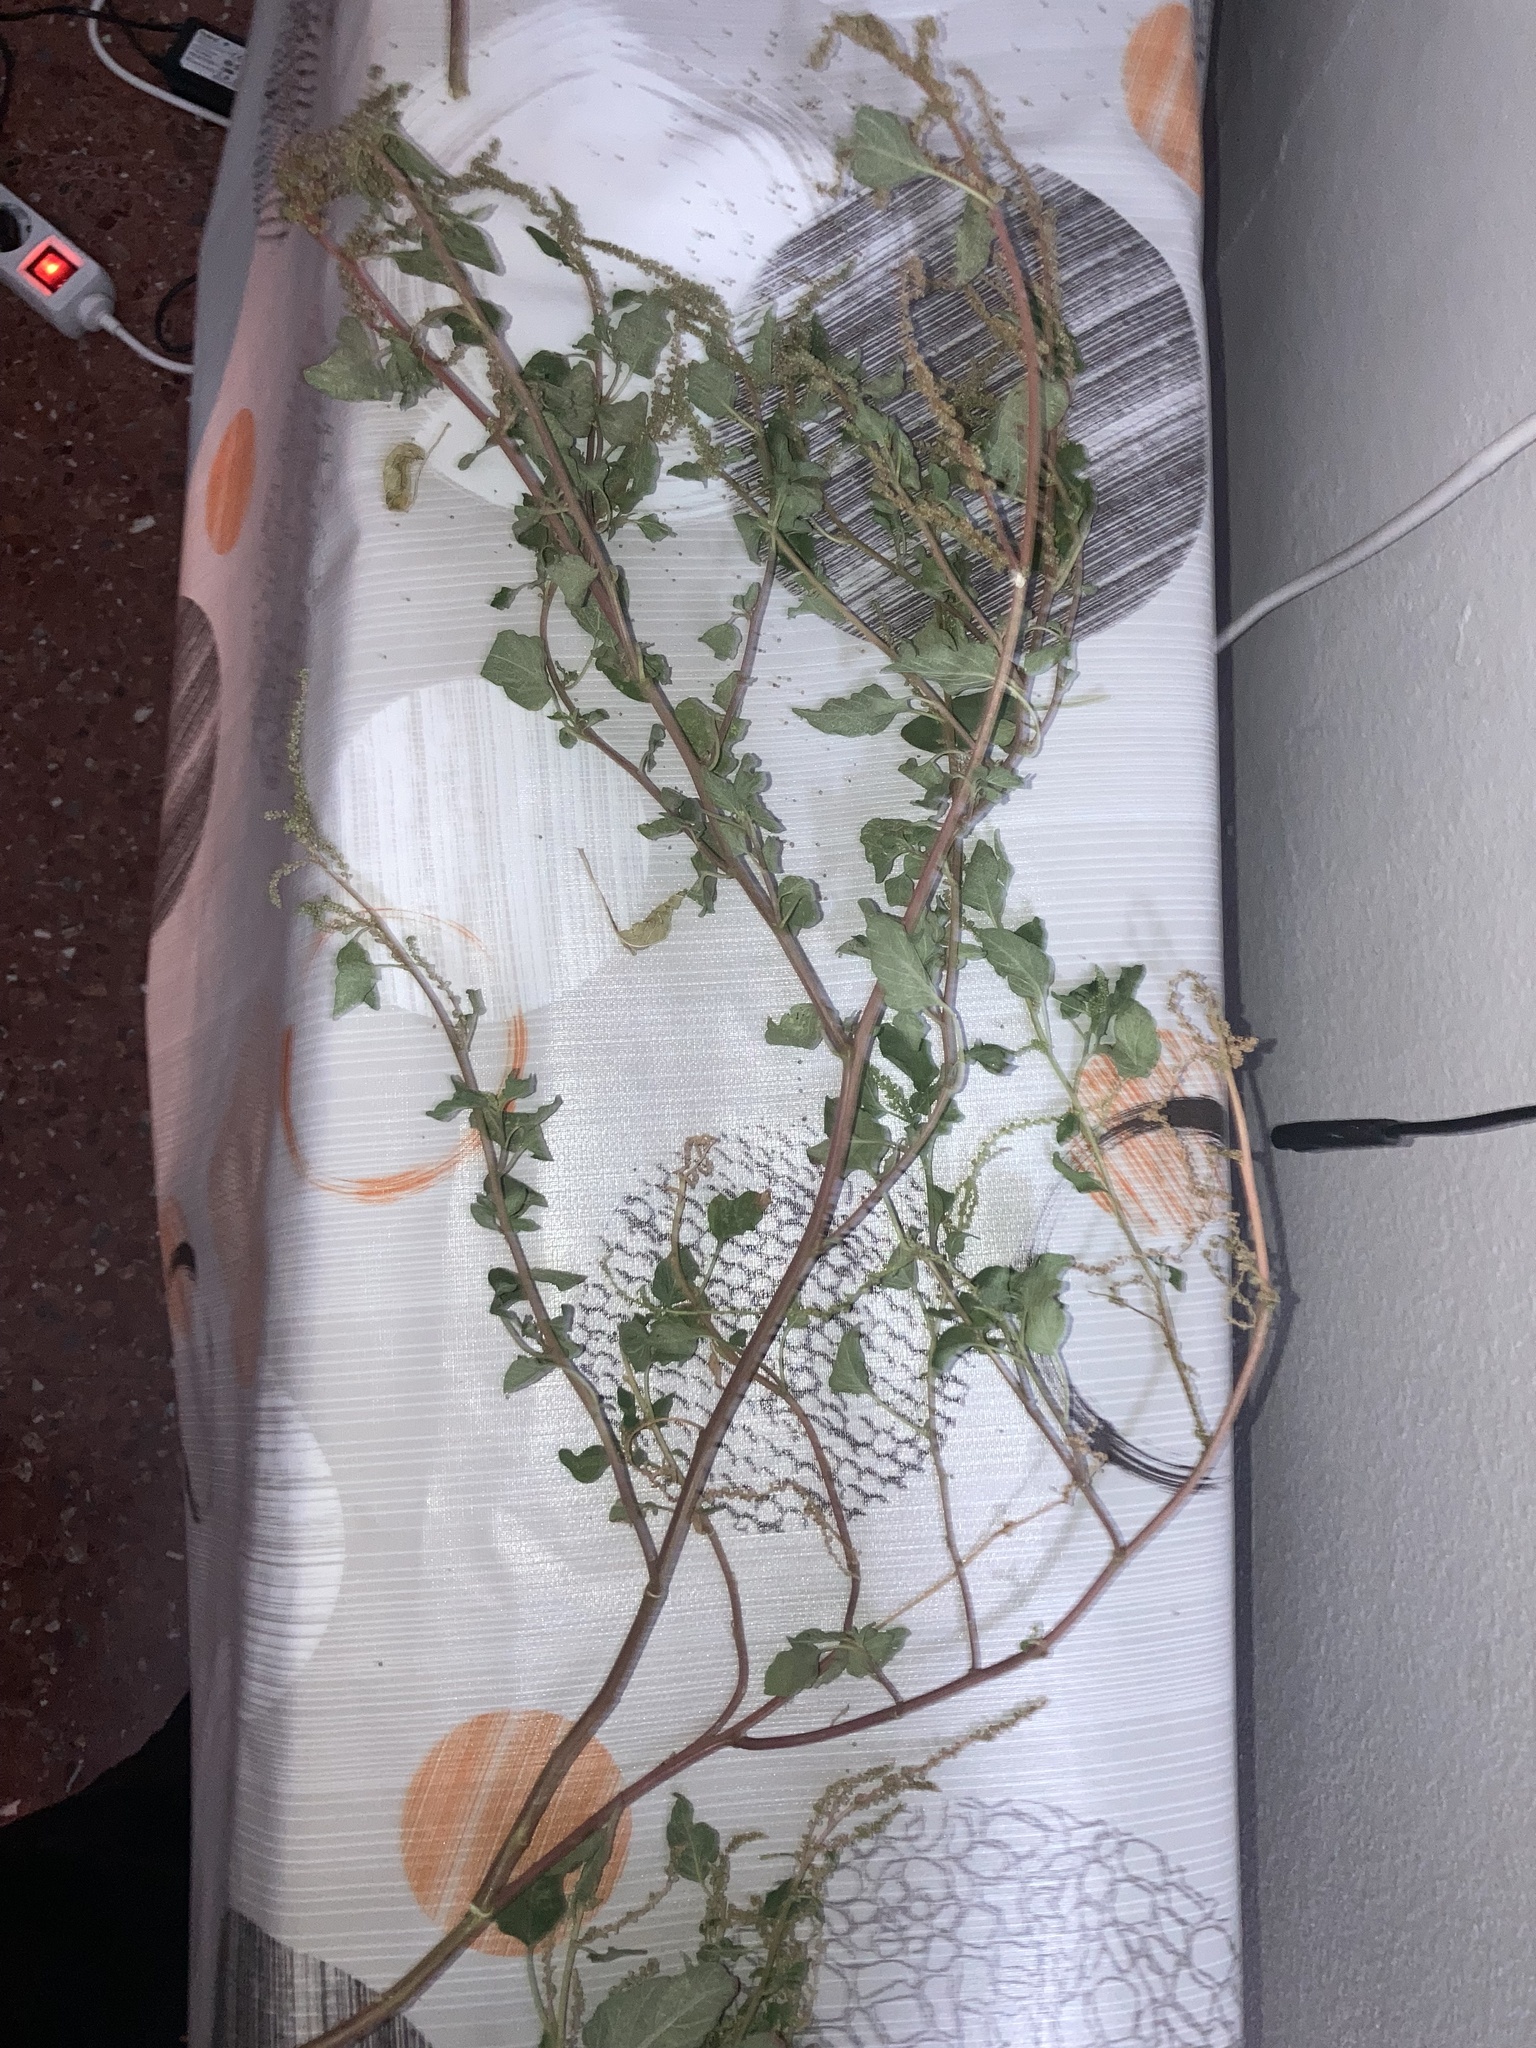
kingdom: Plantae
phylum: Tracheophyta
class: Magnoliopsida
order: Caryophyllales
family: Amaranthaceae
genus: Amaranthus
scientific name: Amaranthus viridis
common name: Slender amaranth
